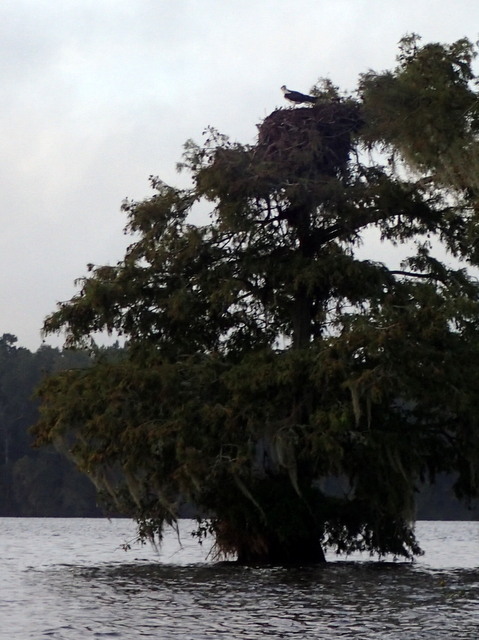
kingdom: Animalia
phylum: Chordata
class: Aves
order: Accipitriformes
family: Pandionidae
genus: Pandion
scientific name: Pandion haliaetus
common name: Osprey
